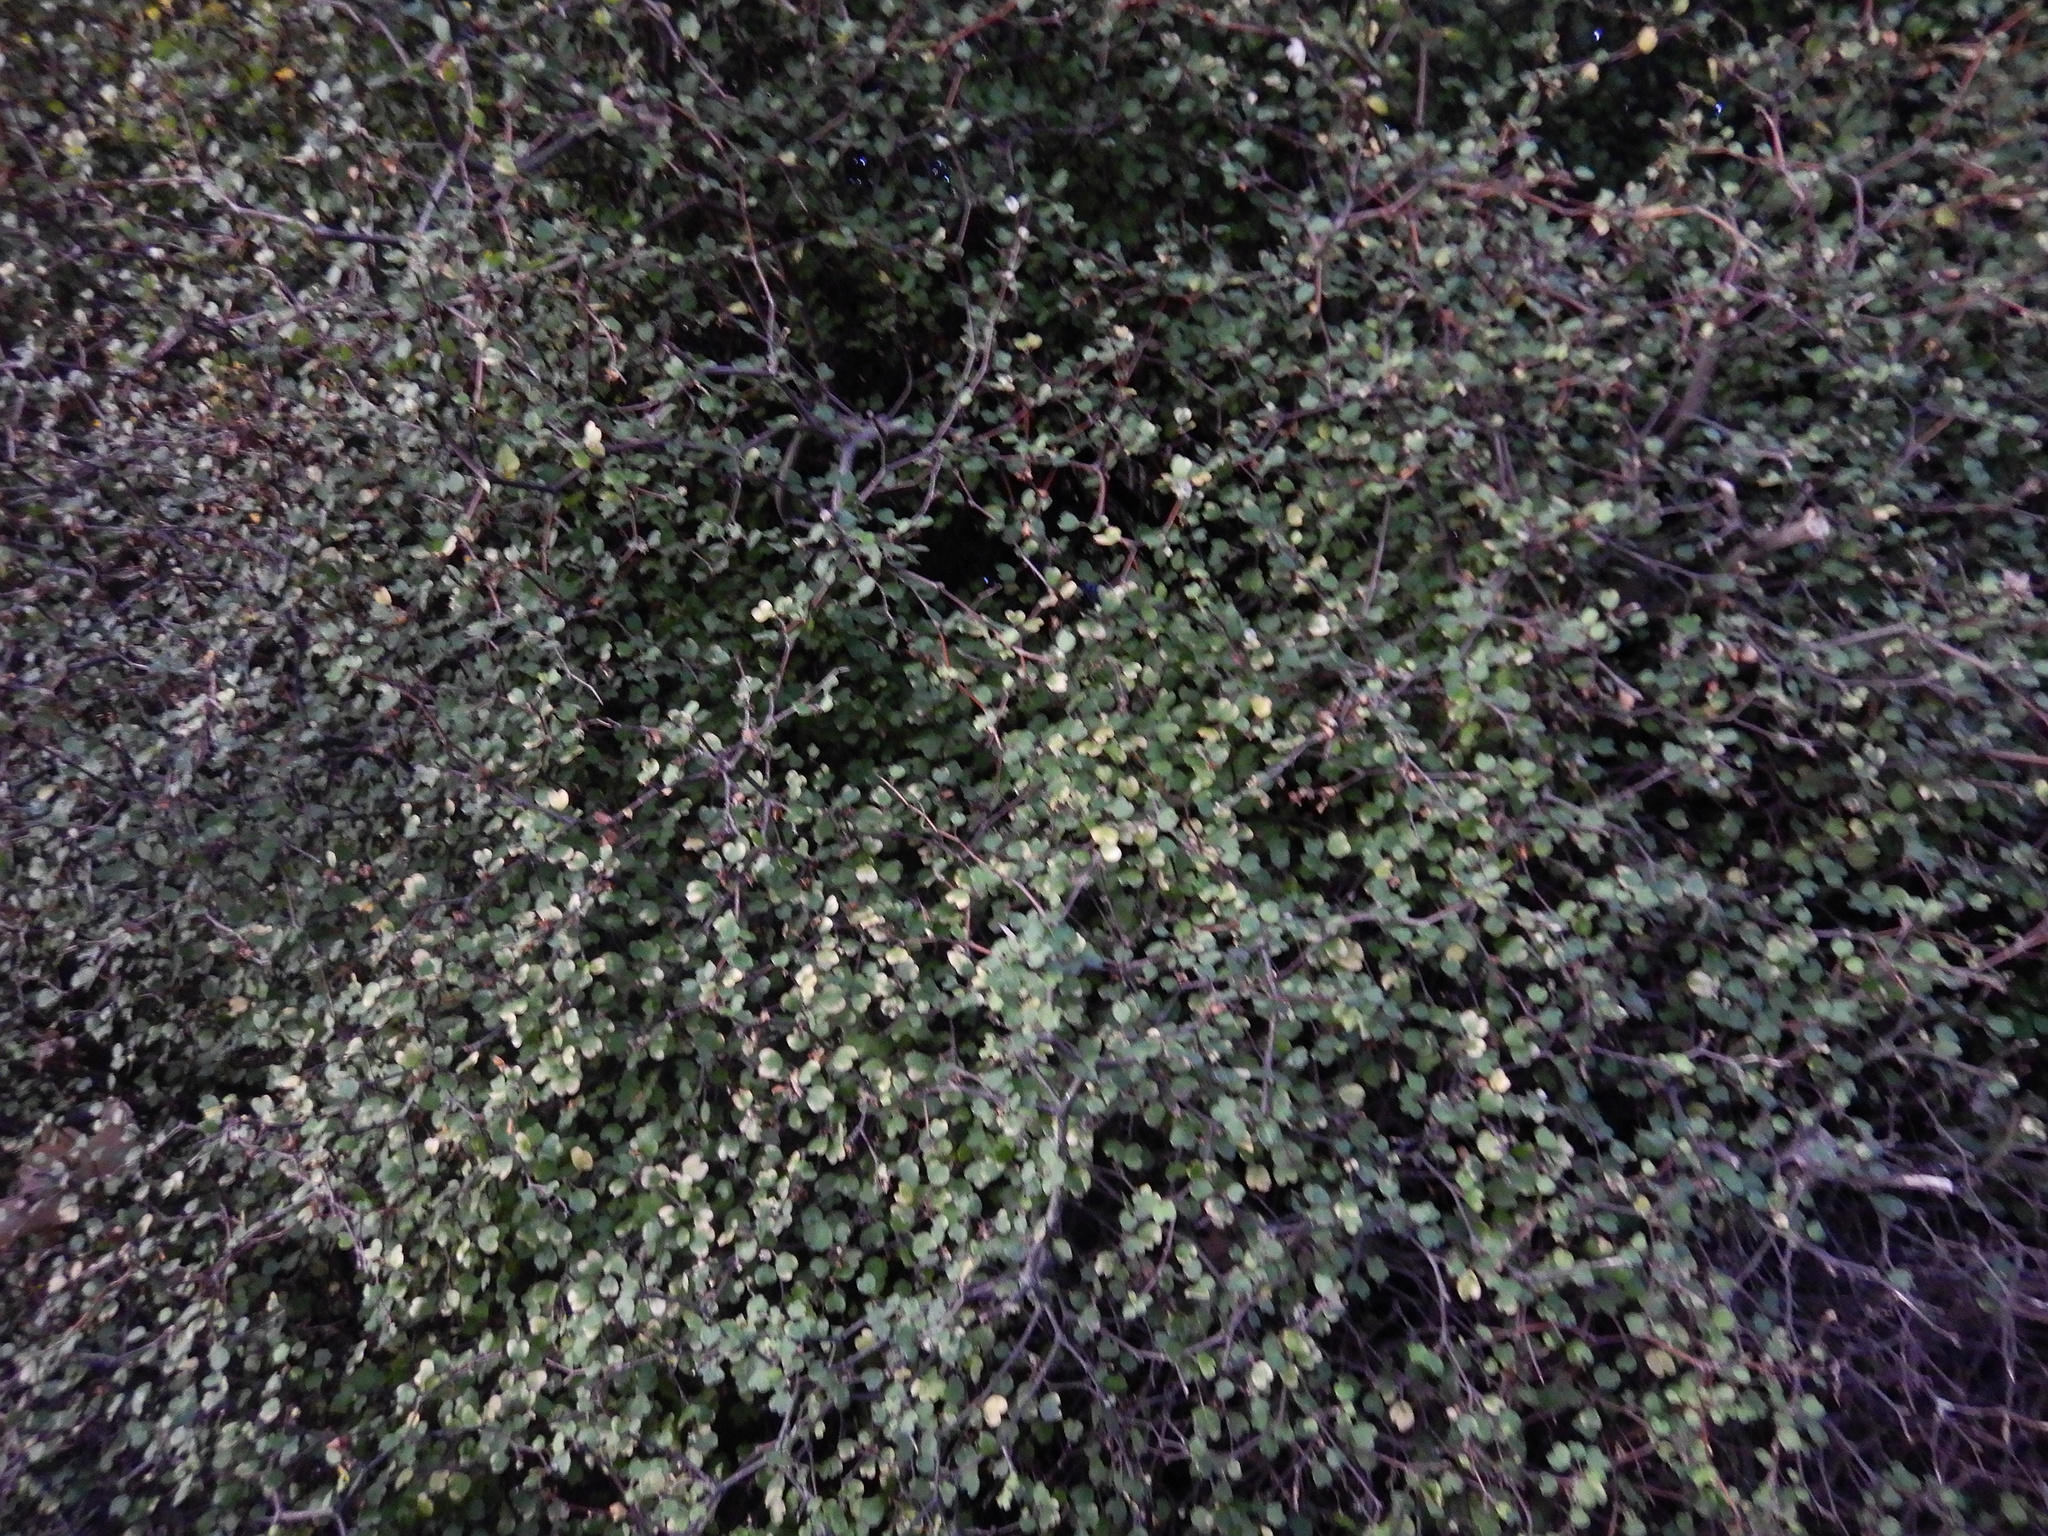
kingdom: Plantae
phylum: Tracheophyta
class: Magnoliopsida
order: Caryophyllales
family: Polygonaceae
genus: Muehlenbeckia
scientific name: Muehlenbeckia astonii
